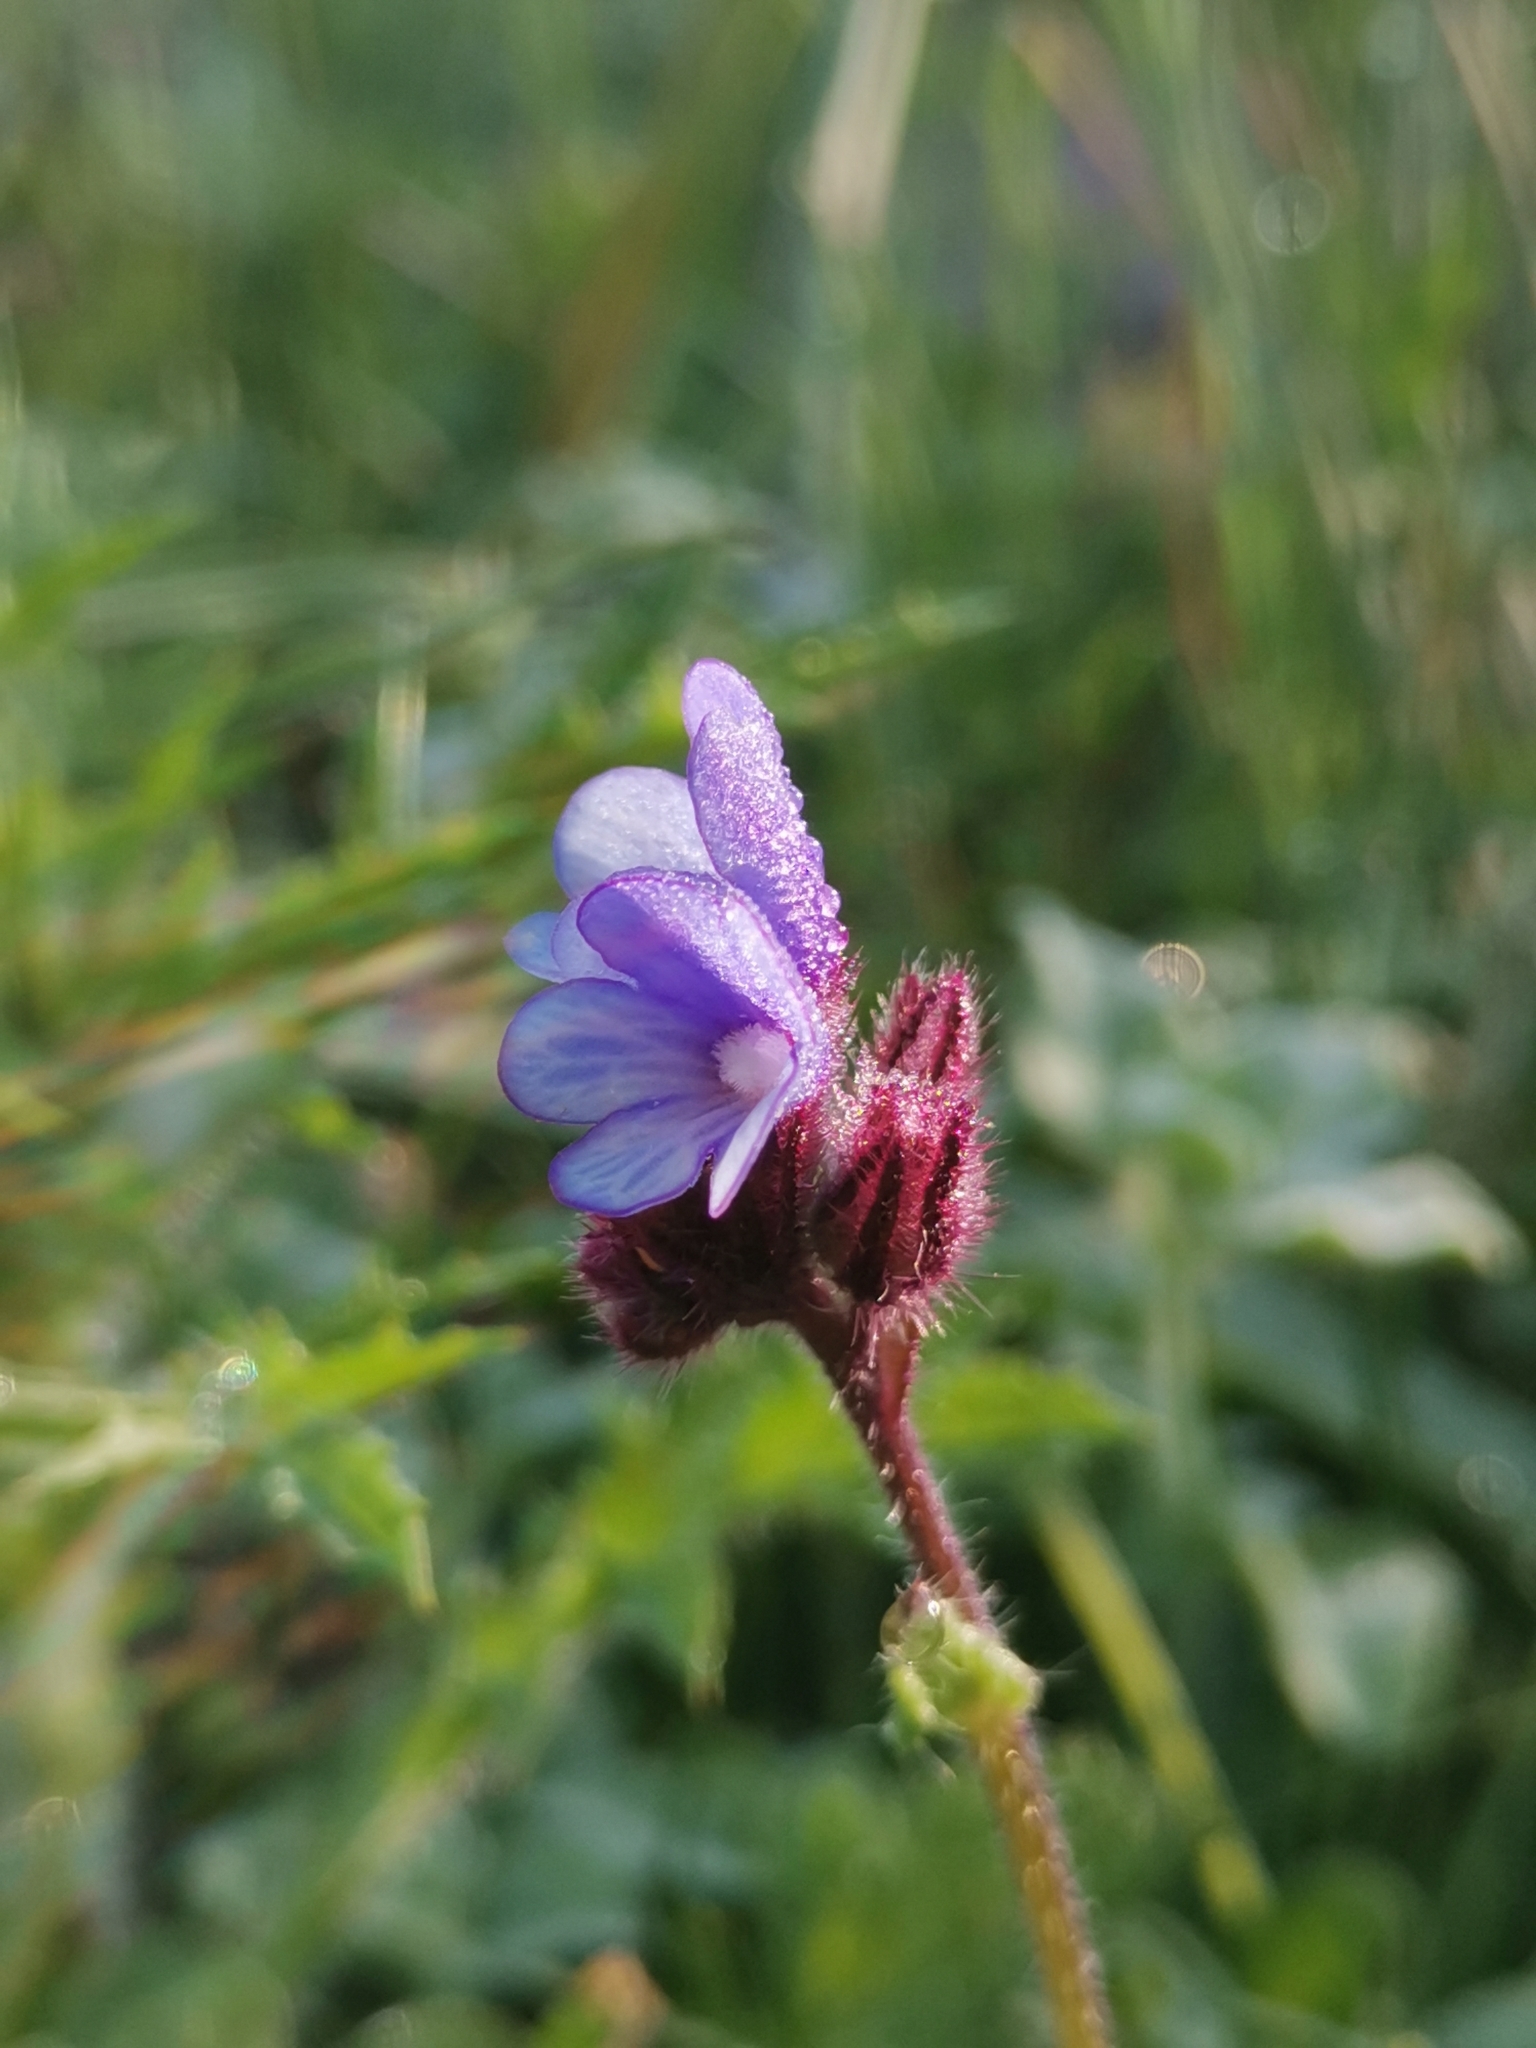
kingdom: Plantae
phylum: Tracheophyta
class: Magnoliopsida
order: Boraginales
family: Boraginaceae
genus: Anchusella
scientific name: Anchusella cretica
